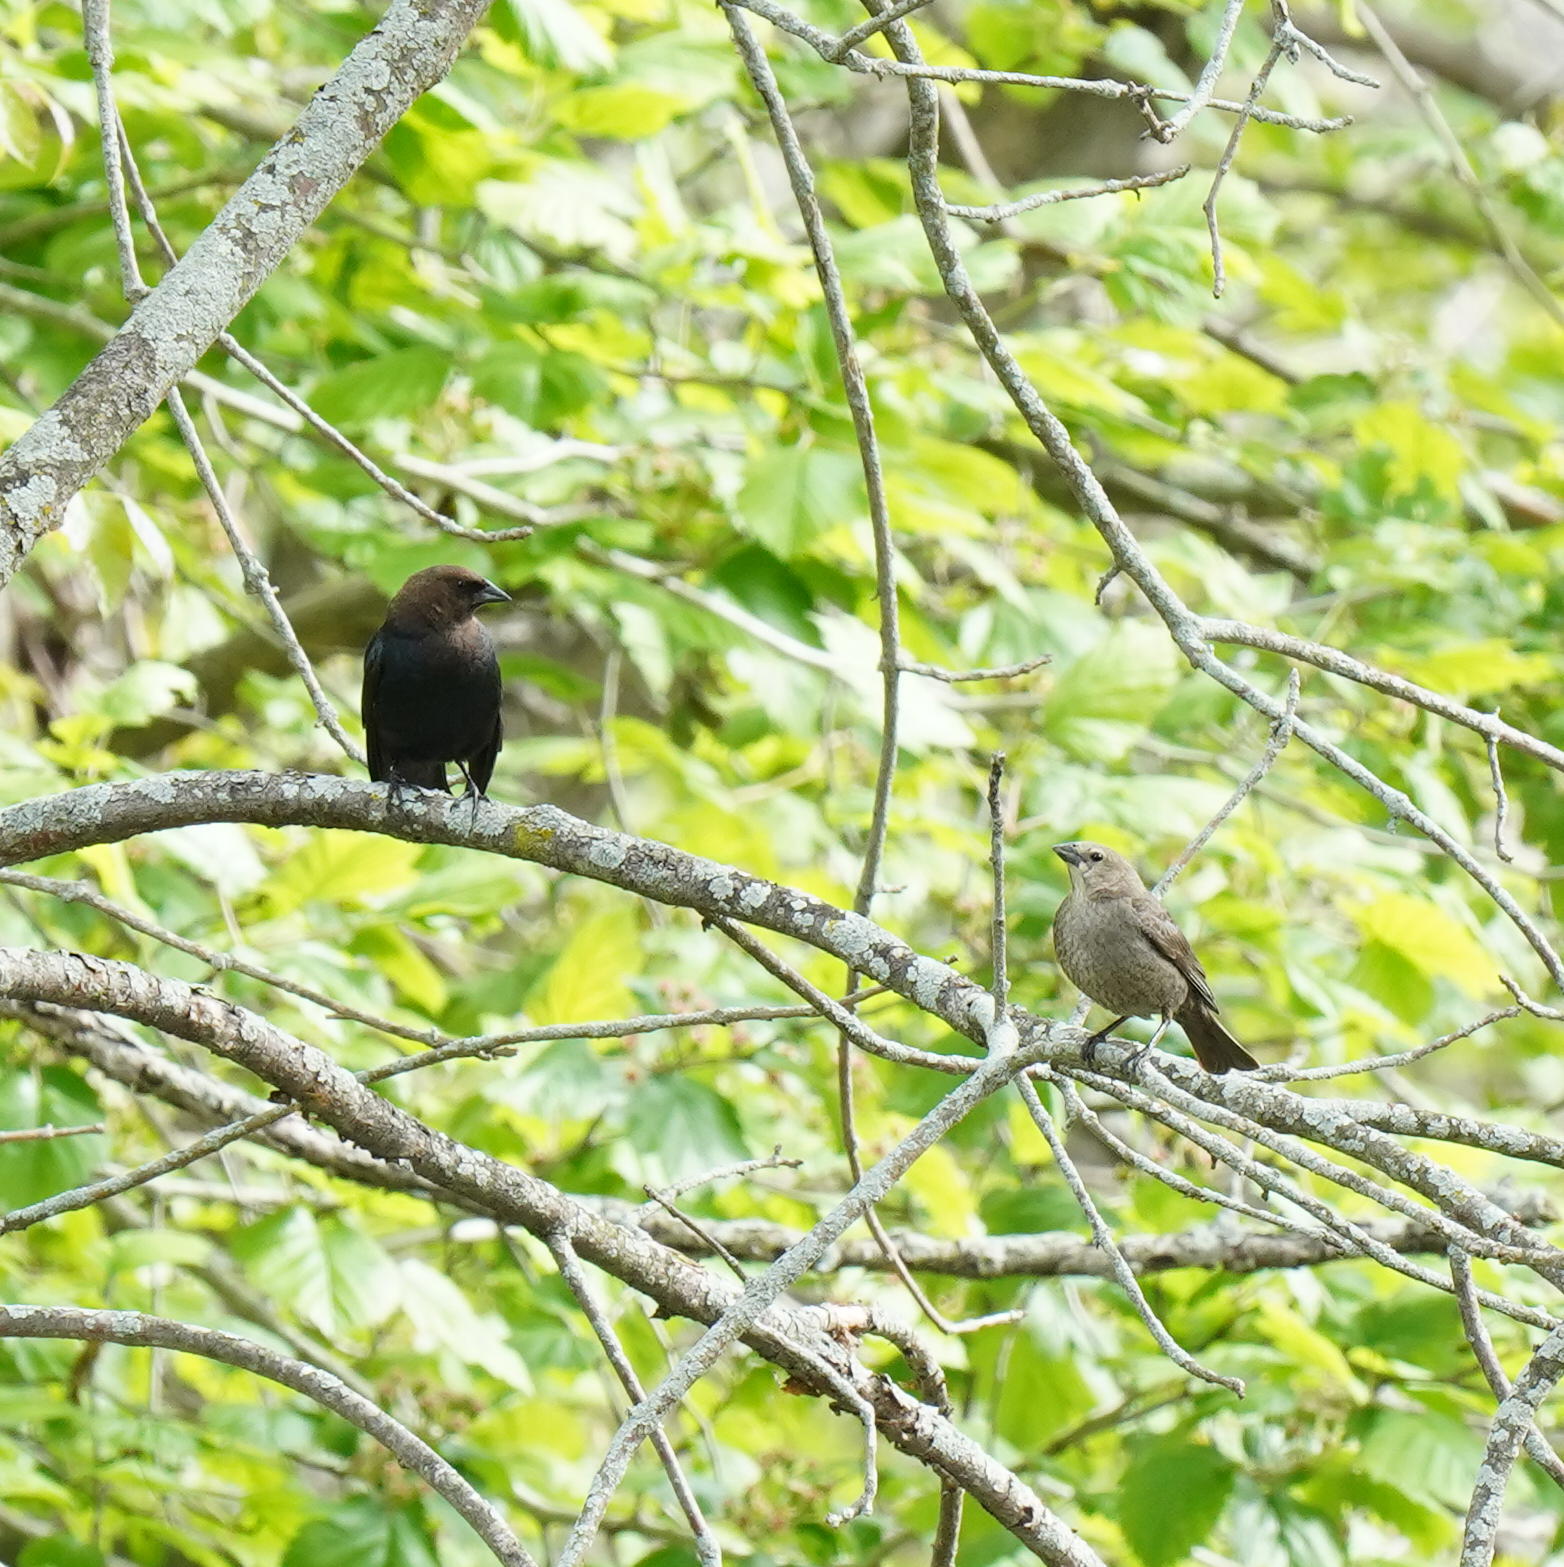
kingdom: Animalia
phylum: Chordata
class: Aves
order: Passeriformes
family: Icteridae
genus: Molothrus
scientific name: Molothrus ater
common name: Brown-headed cowbird
